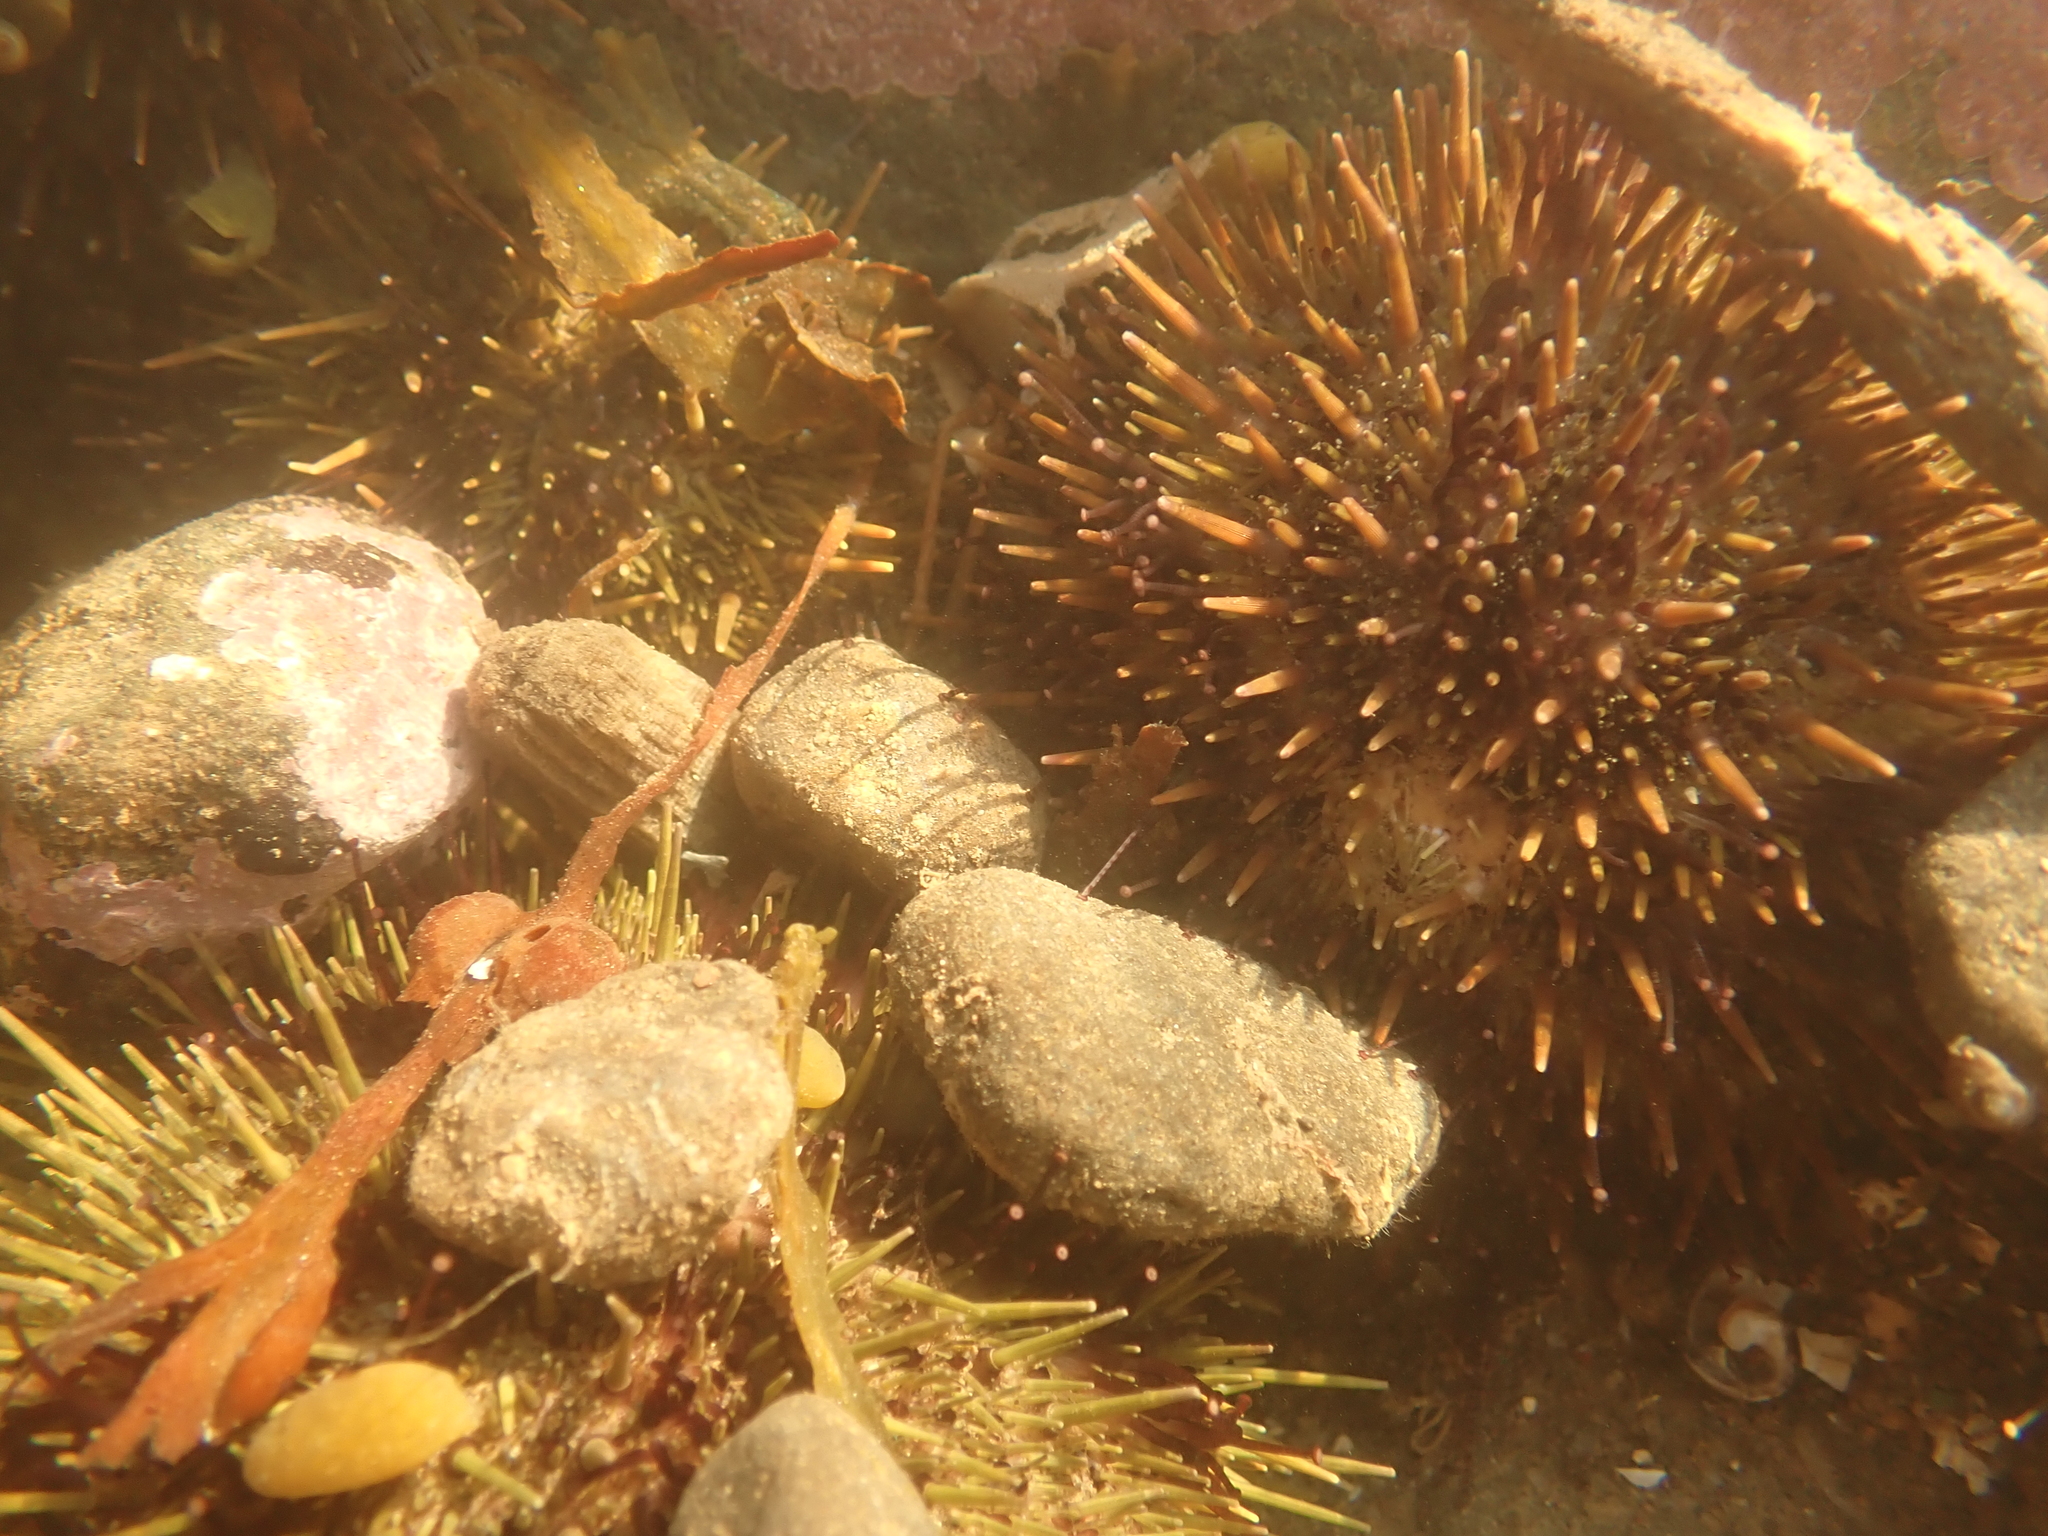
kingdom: Animalia
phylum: Echinodermata
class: Echinoidea
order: Camarodonta
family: Strongylocentrotidae
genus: Strongylocentrotus
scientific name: Strongylocentrotus droebachiensis
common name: Northern sea urchin
